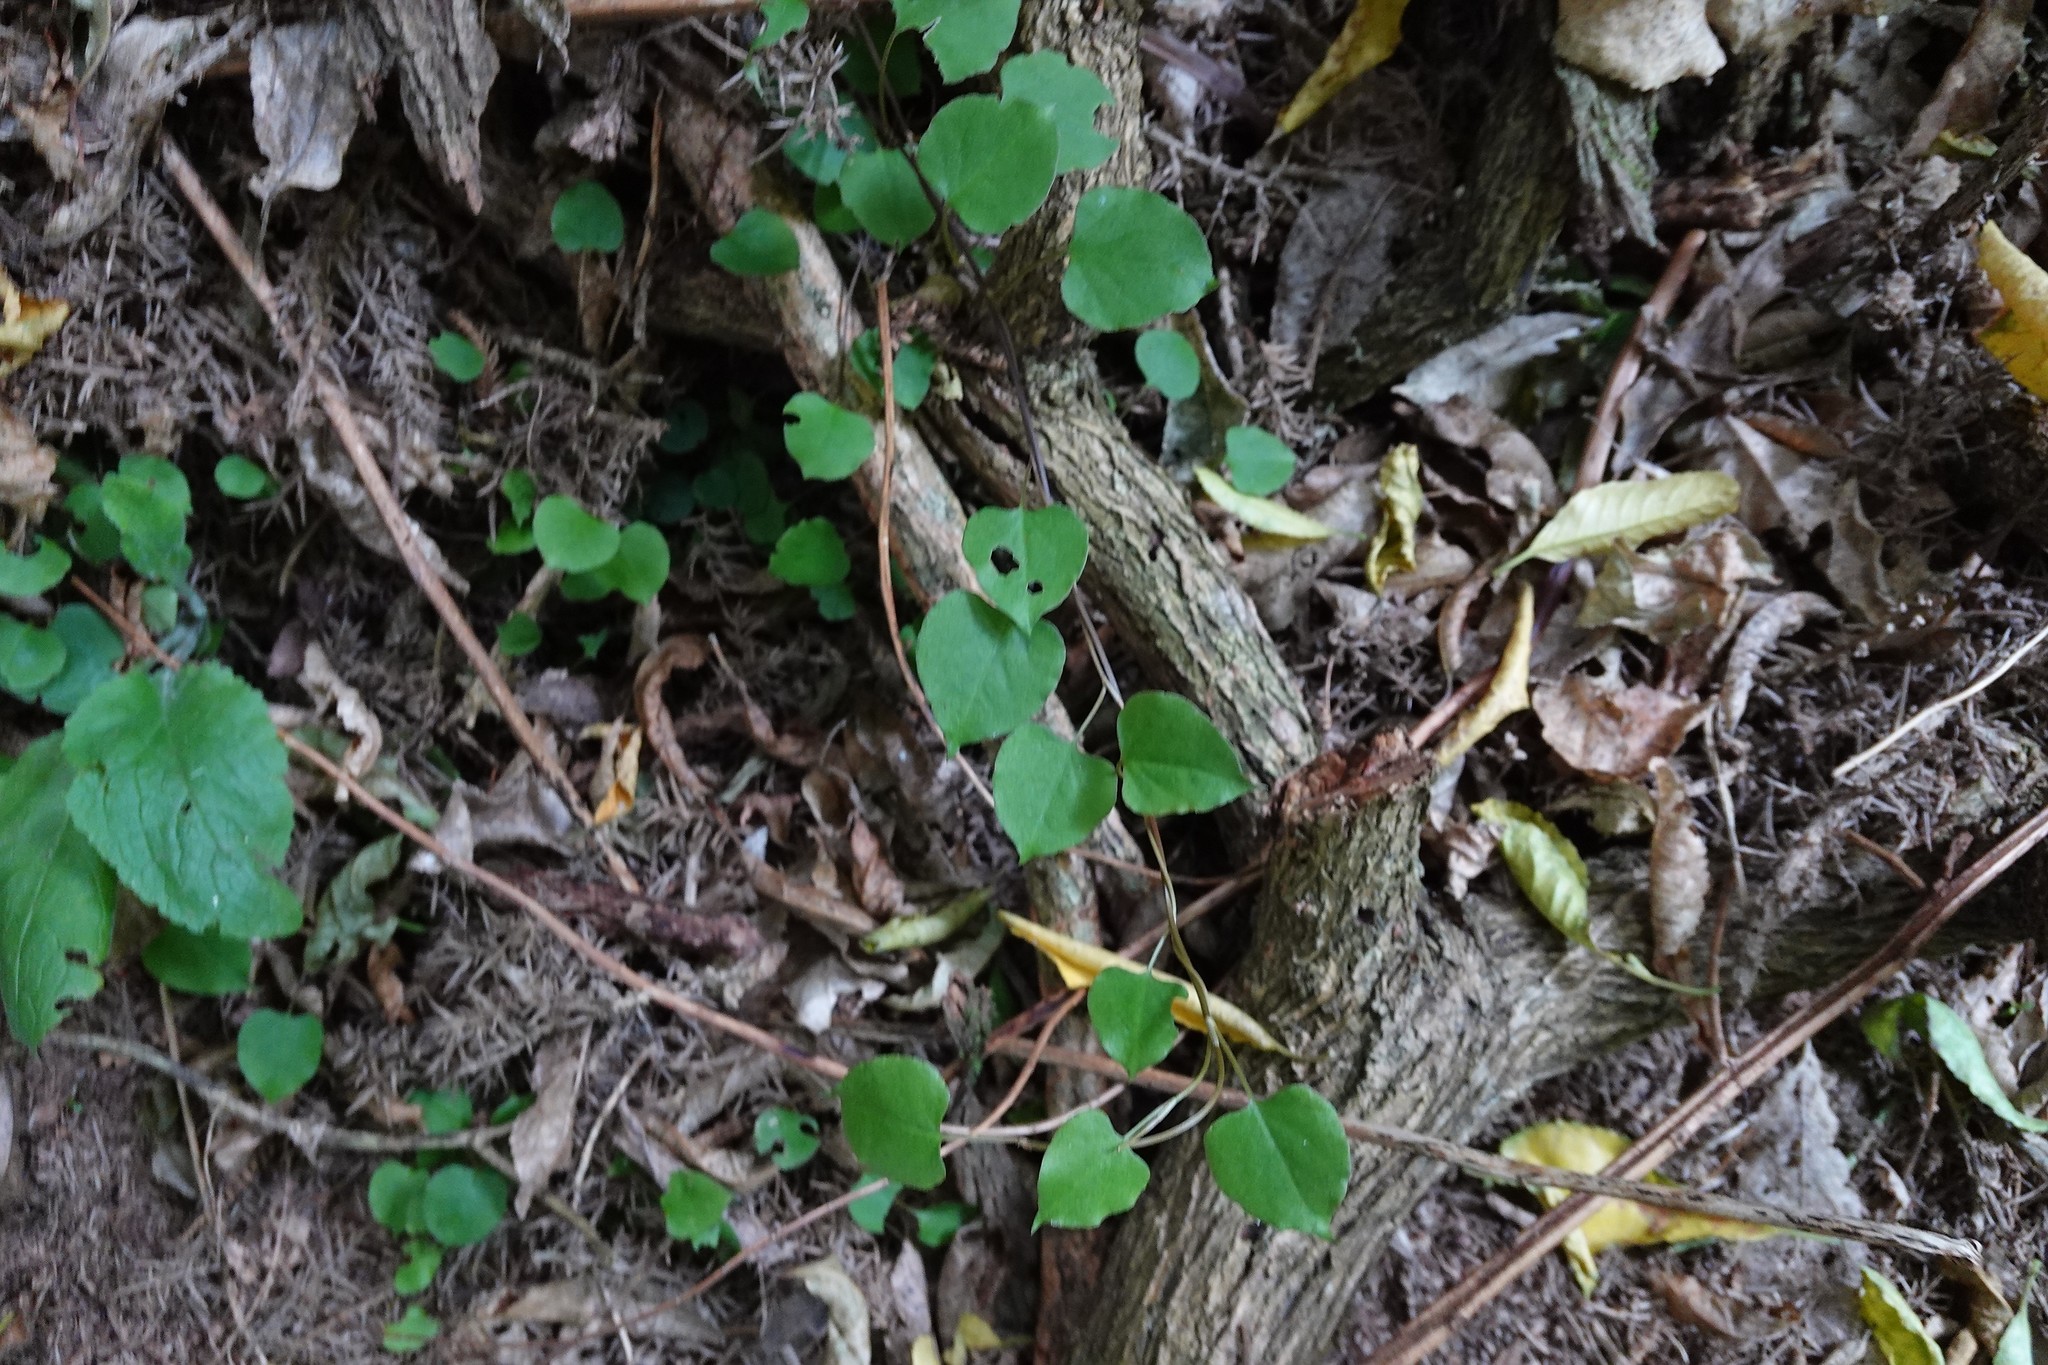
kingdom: Plantae
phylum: Tracheophyta
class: Magnoliopsida
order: Caryophyllales
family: Polygonaceae
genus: Muehlenbeckia
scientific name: Muehlenbeckia australis
